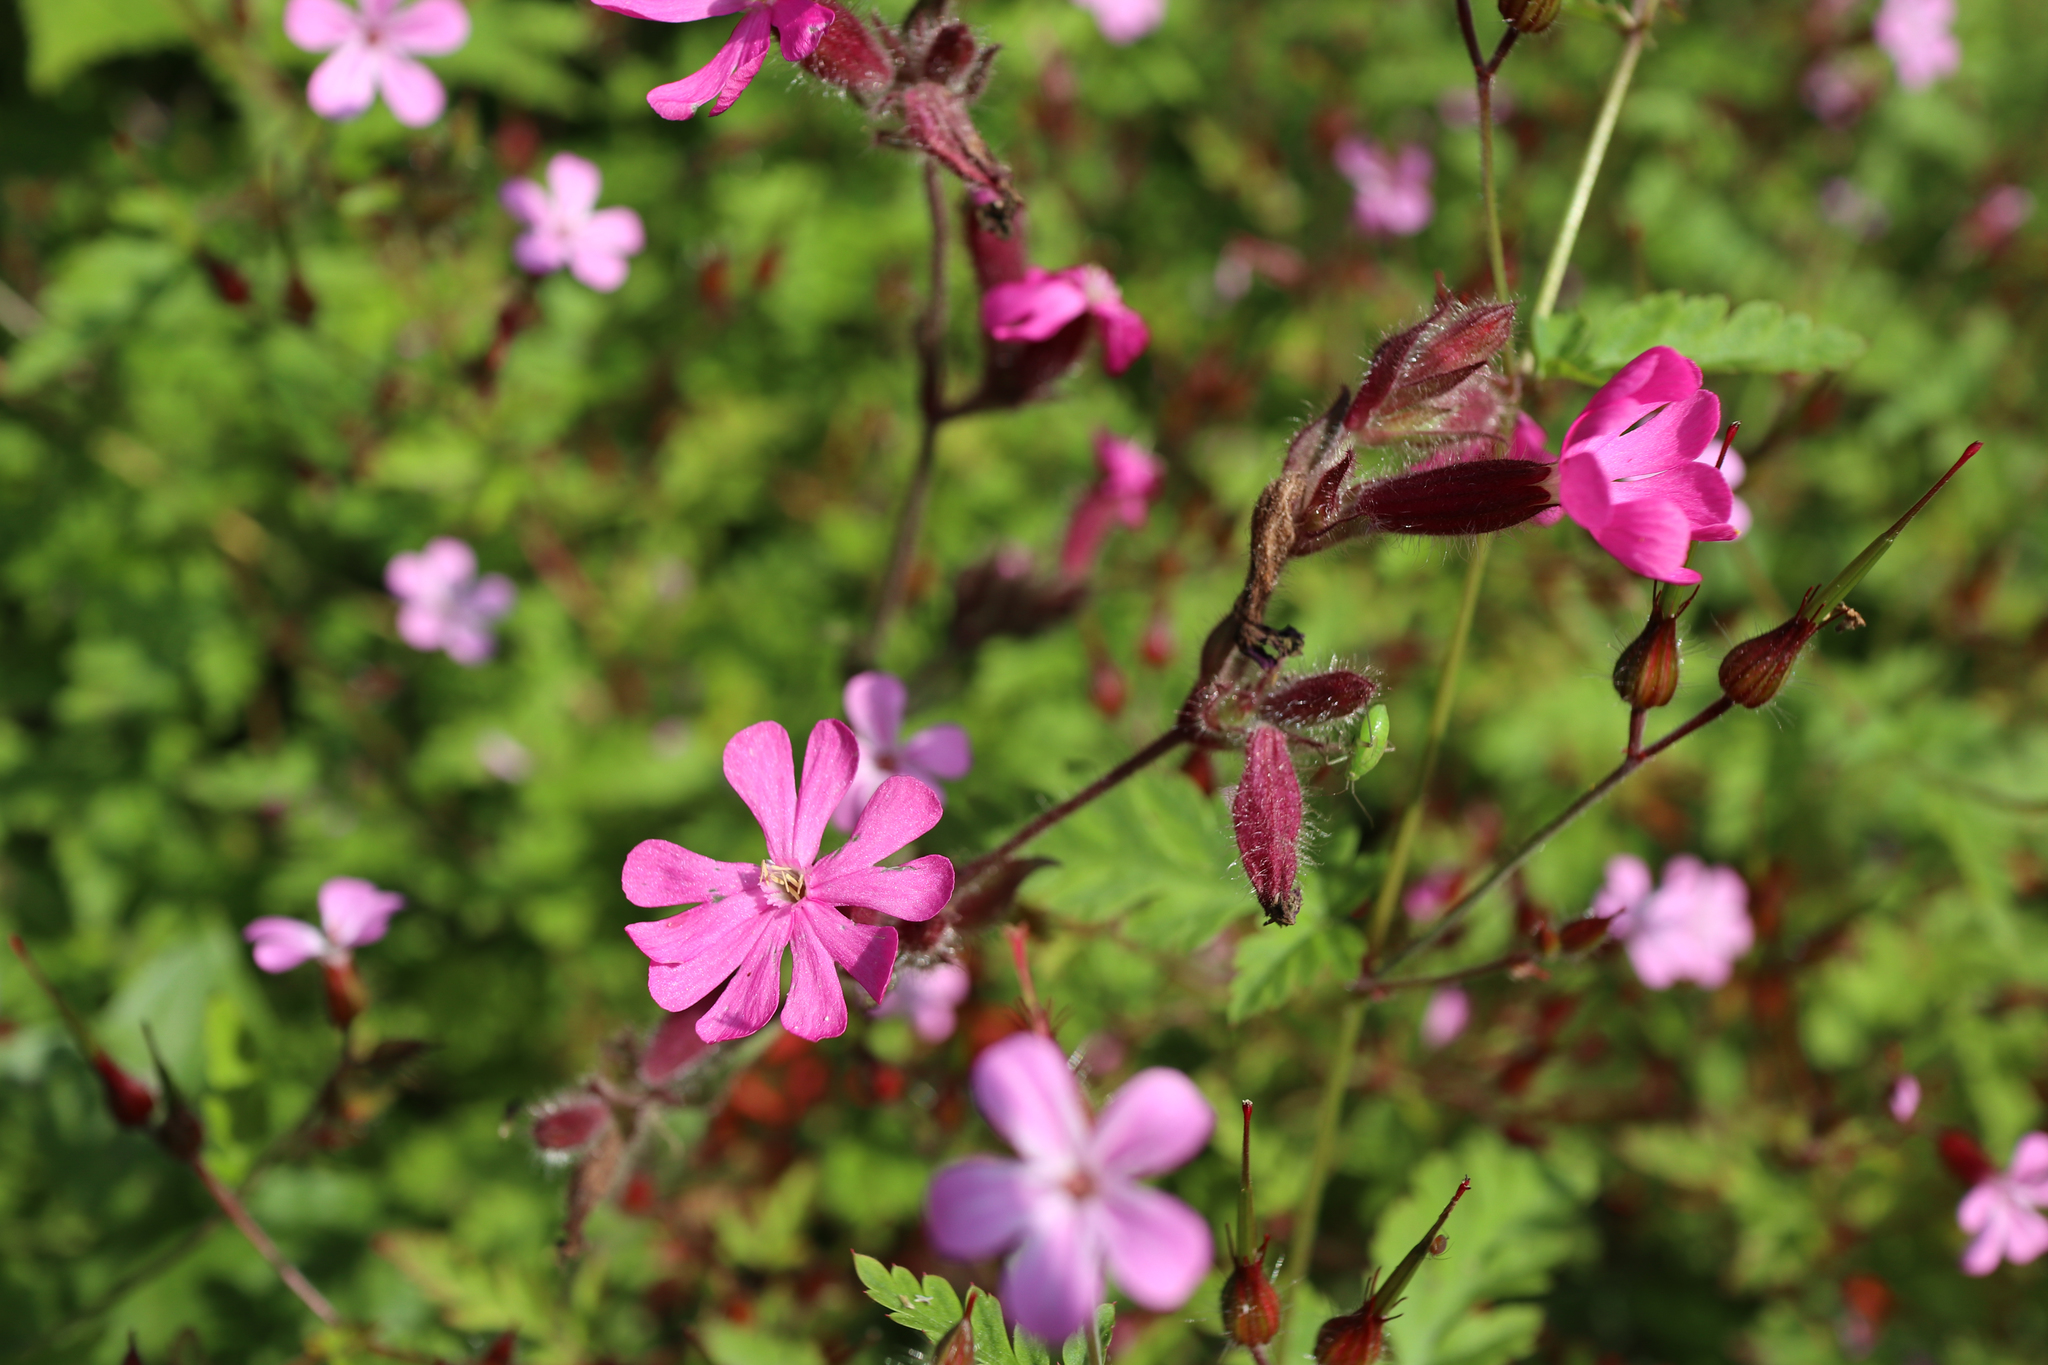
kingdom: Plantae
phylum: Tracheophyta
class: Magnoliopsida
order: Caryophyllales
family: Caryophyllaceae
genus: Silene
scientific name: Silene dioica
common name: Red campion
